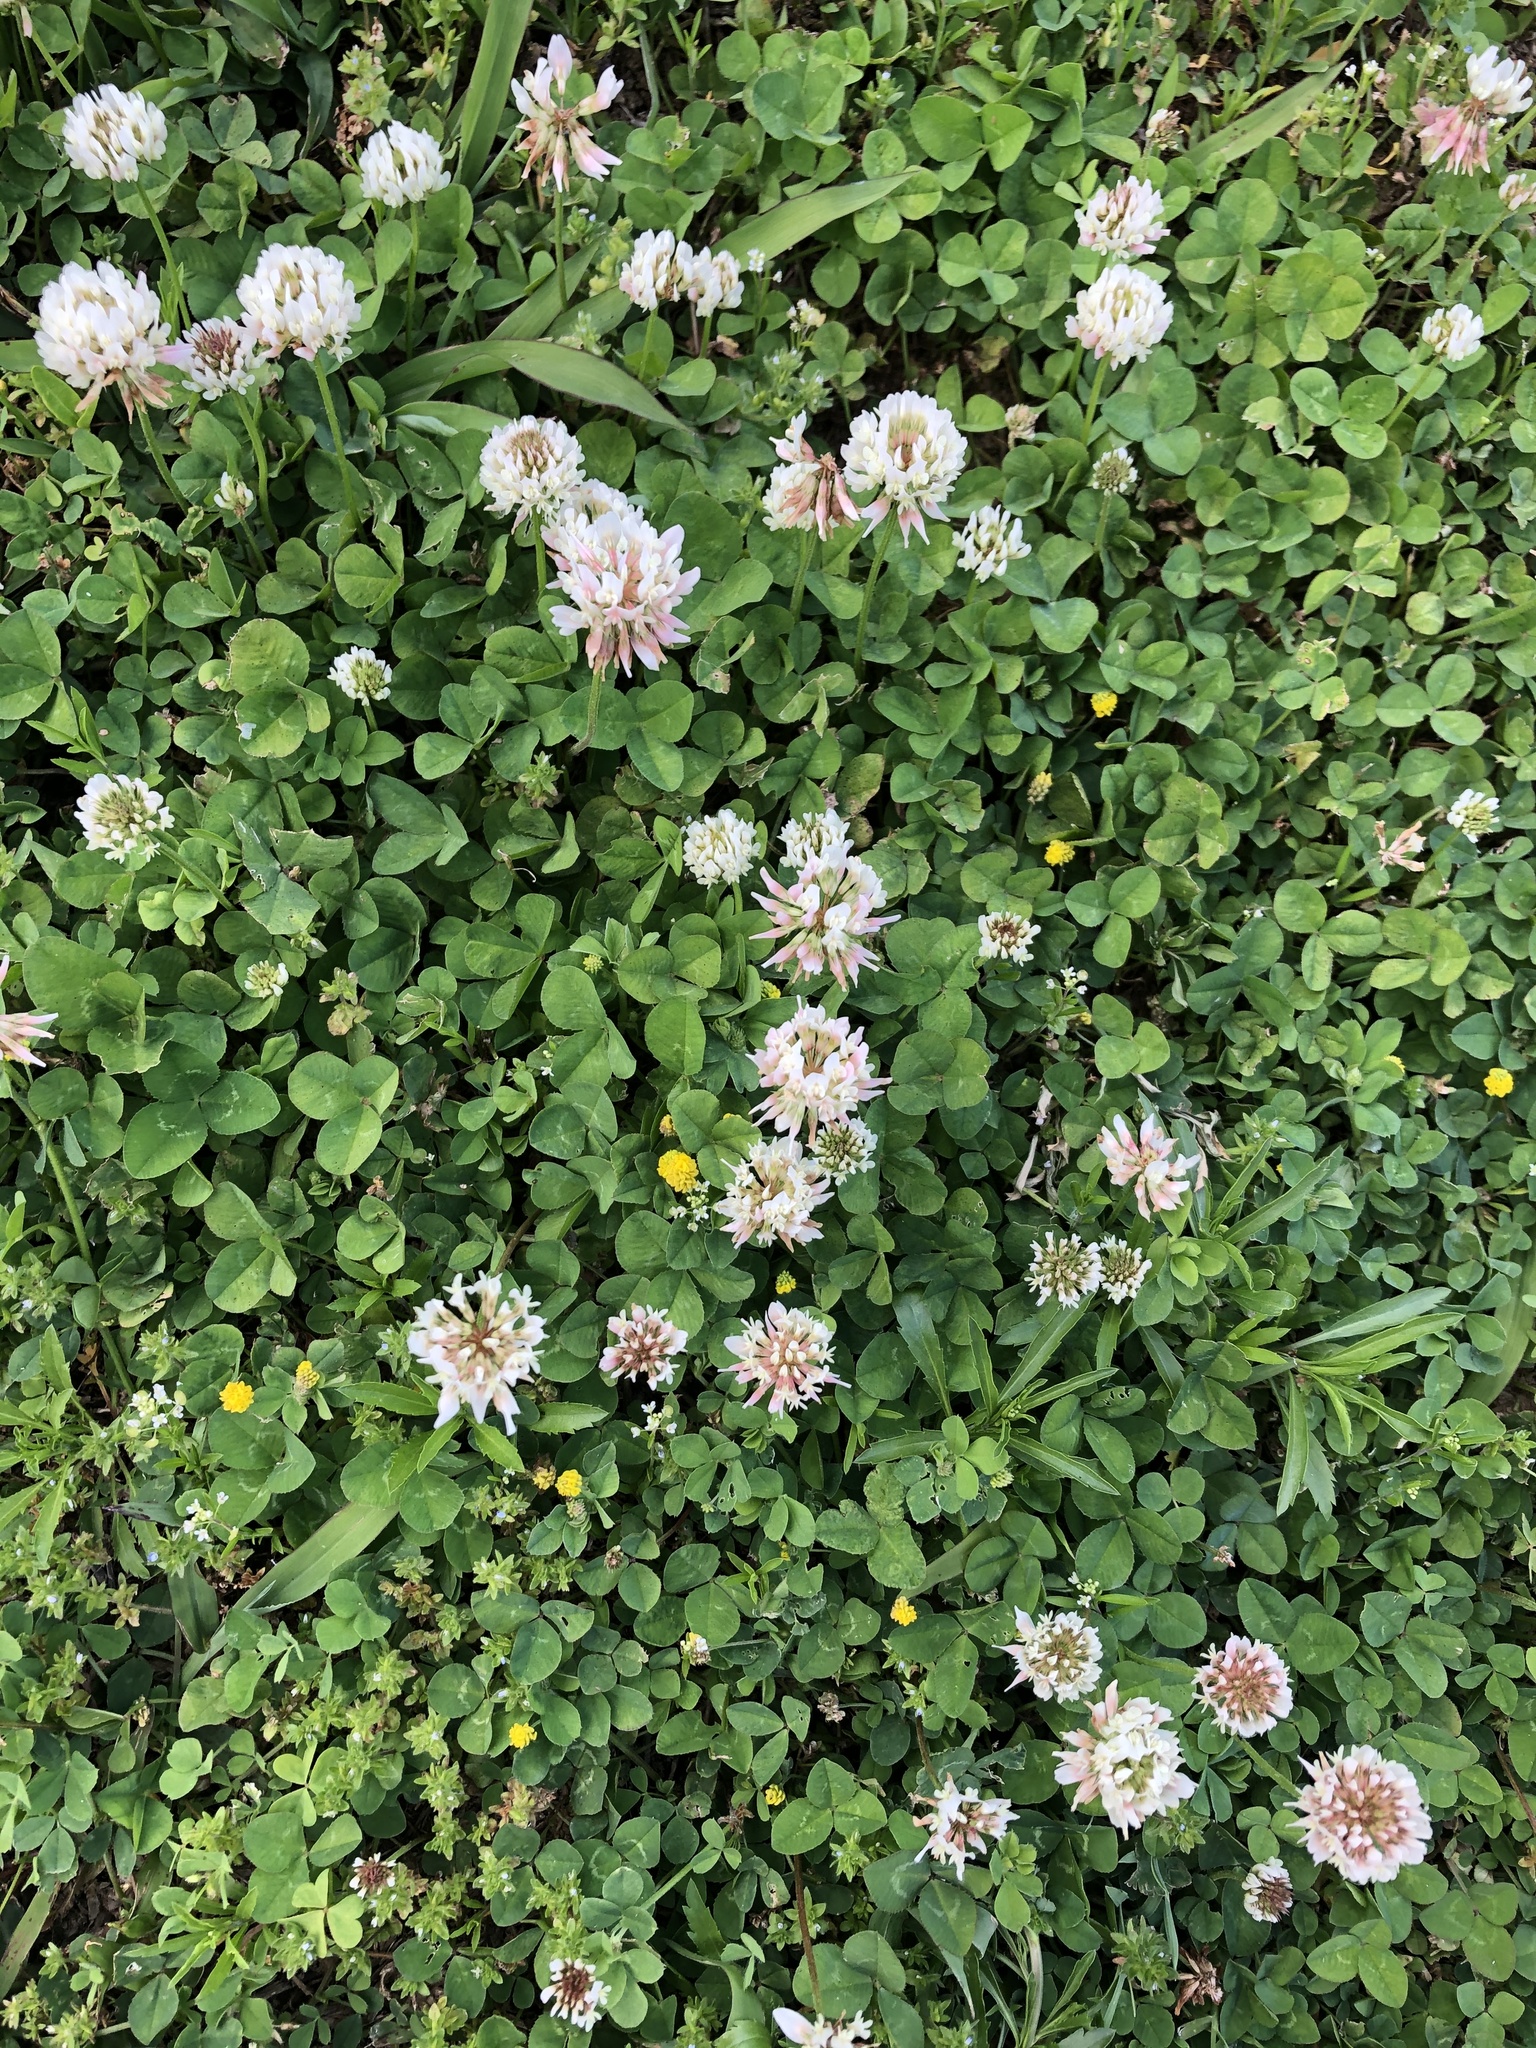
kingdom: Plantae
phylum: Tracheophyta
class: Magnoliopsida
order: Fabales
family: Fabaceae
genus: Trifolium
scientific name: Trifolium repens
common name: White clover
